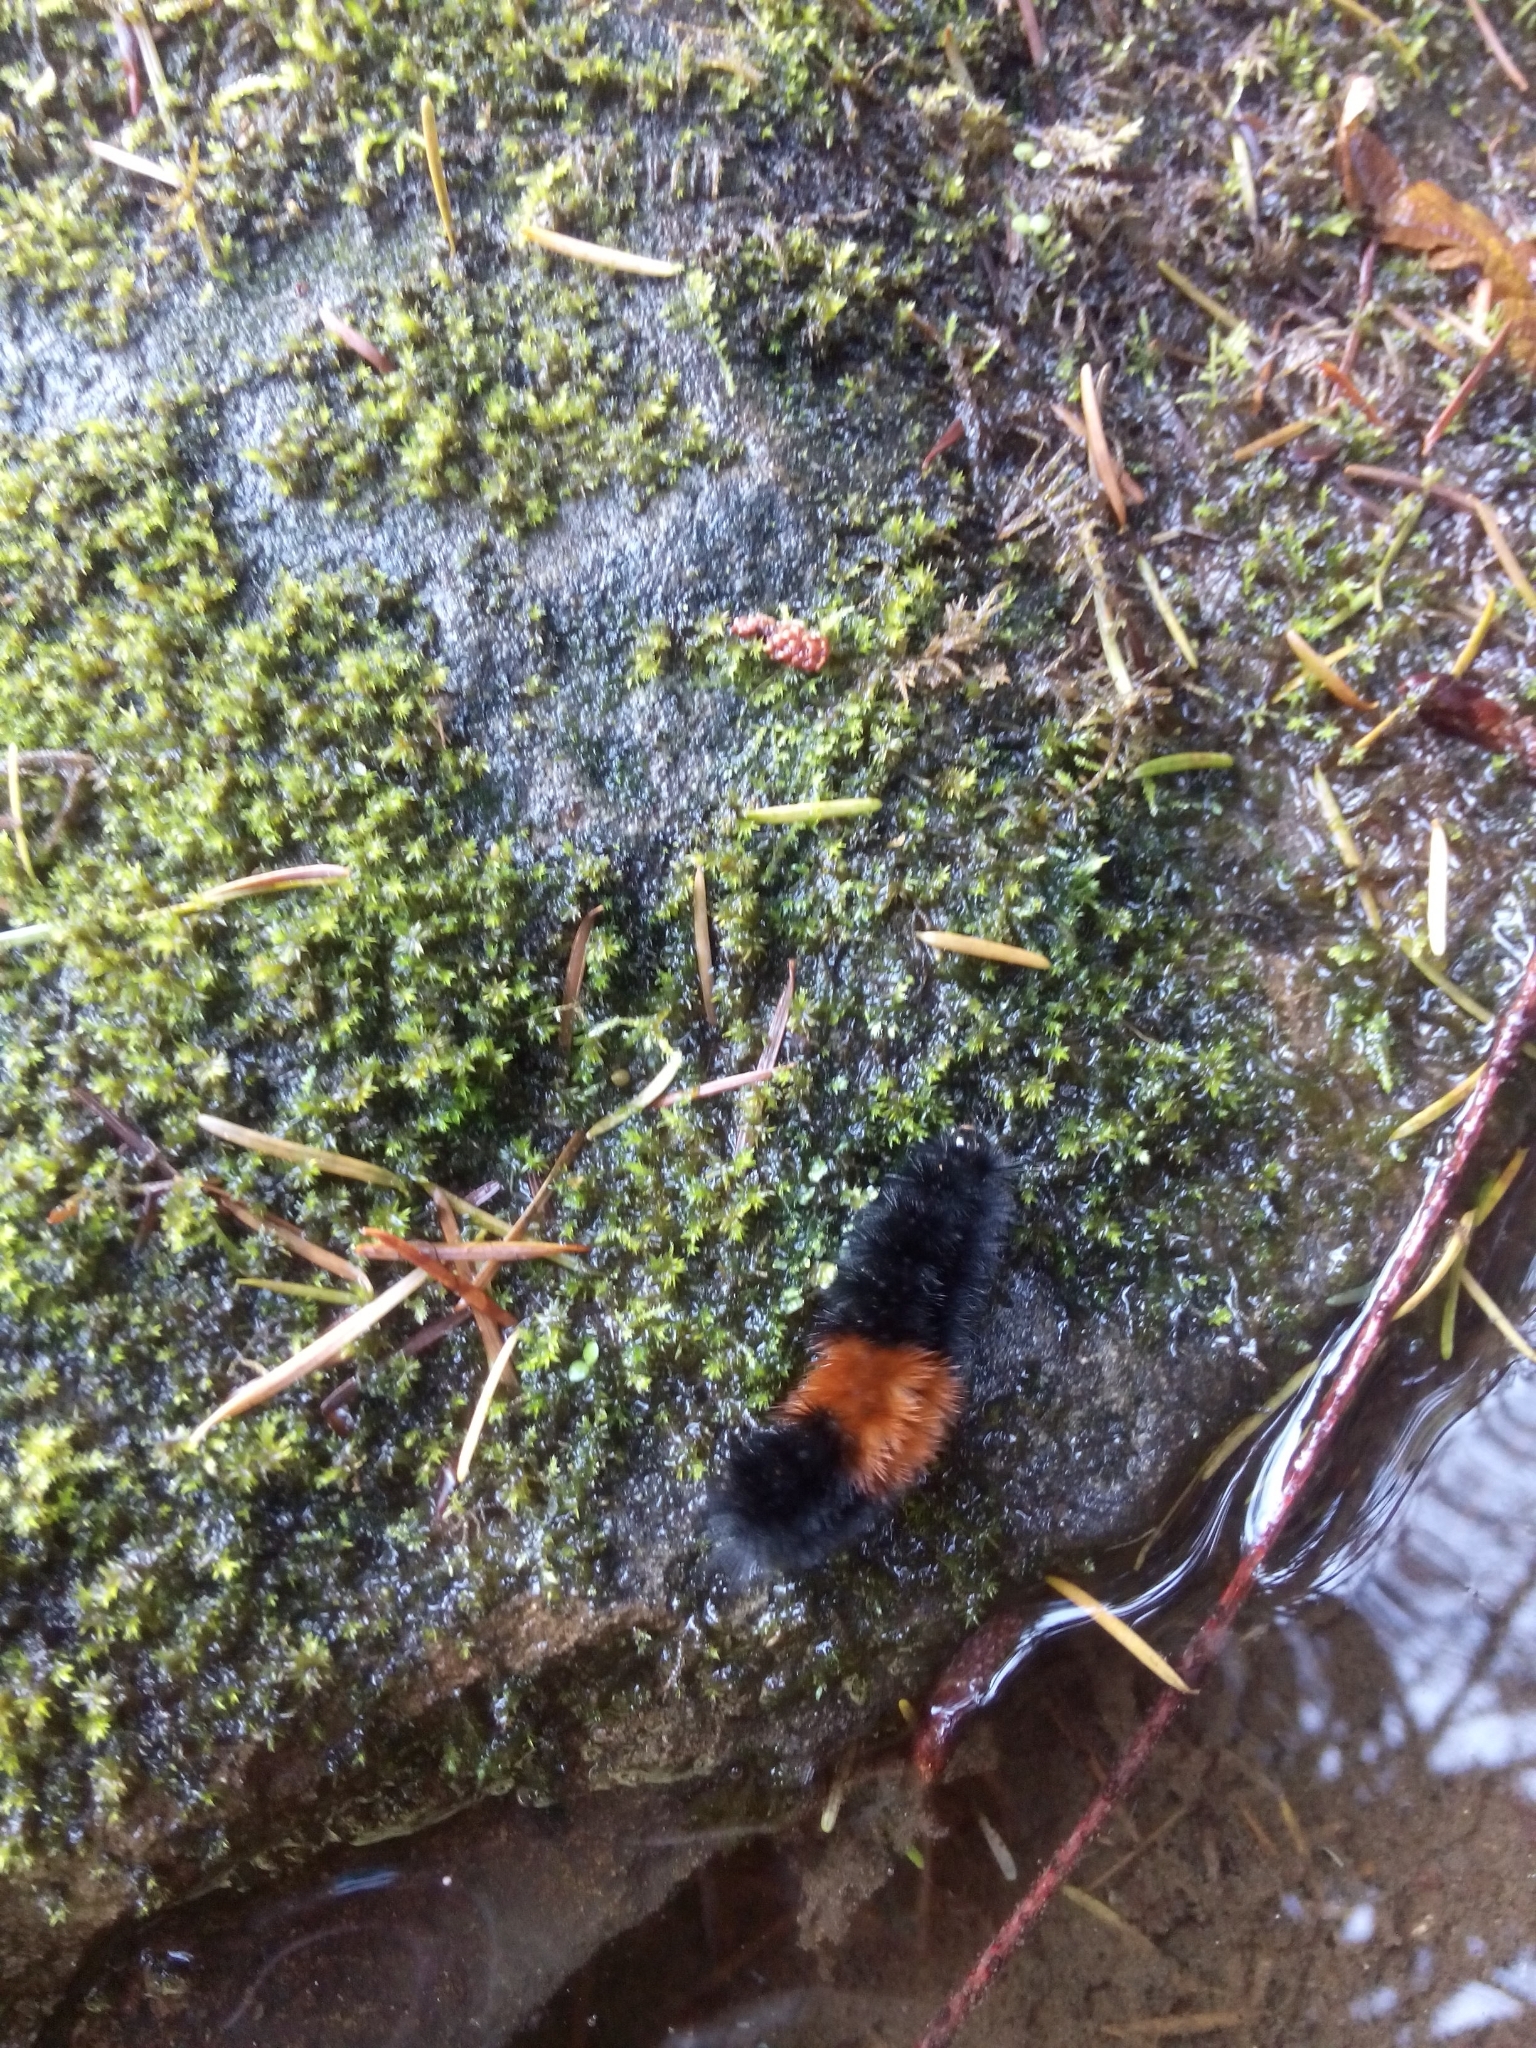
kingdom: Animalia
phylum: Arthropoda
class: Insecta
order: Lepidoptera
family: Erebidae
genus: Pyrrharctia
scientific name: Pyrrharctia isabella
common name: Isabella tiger moth
